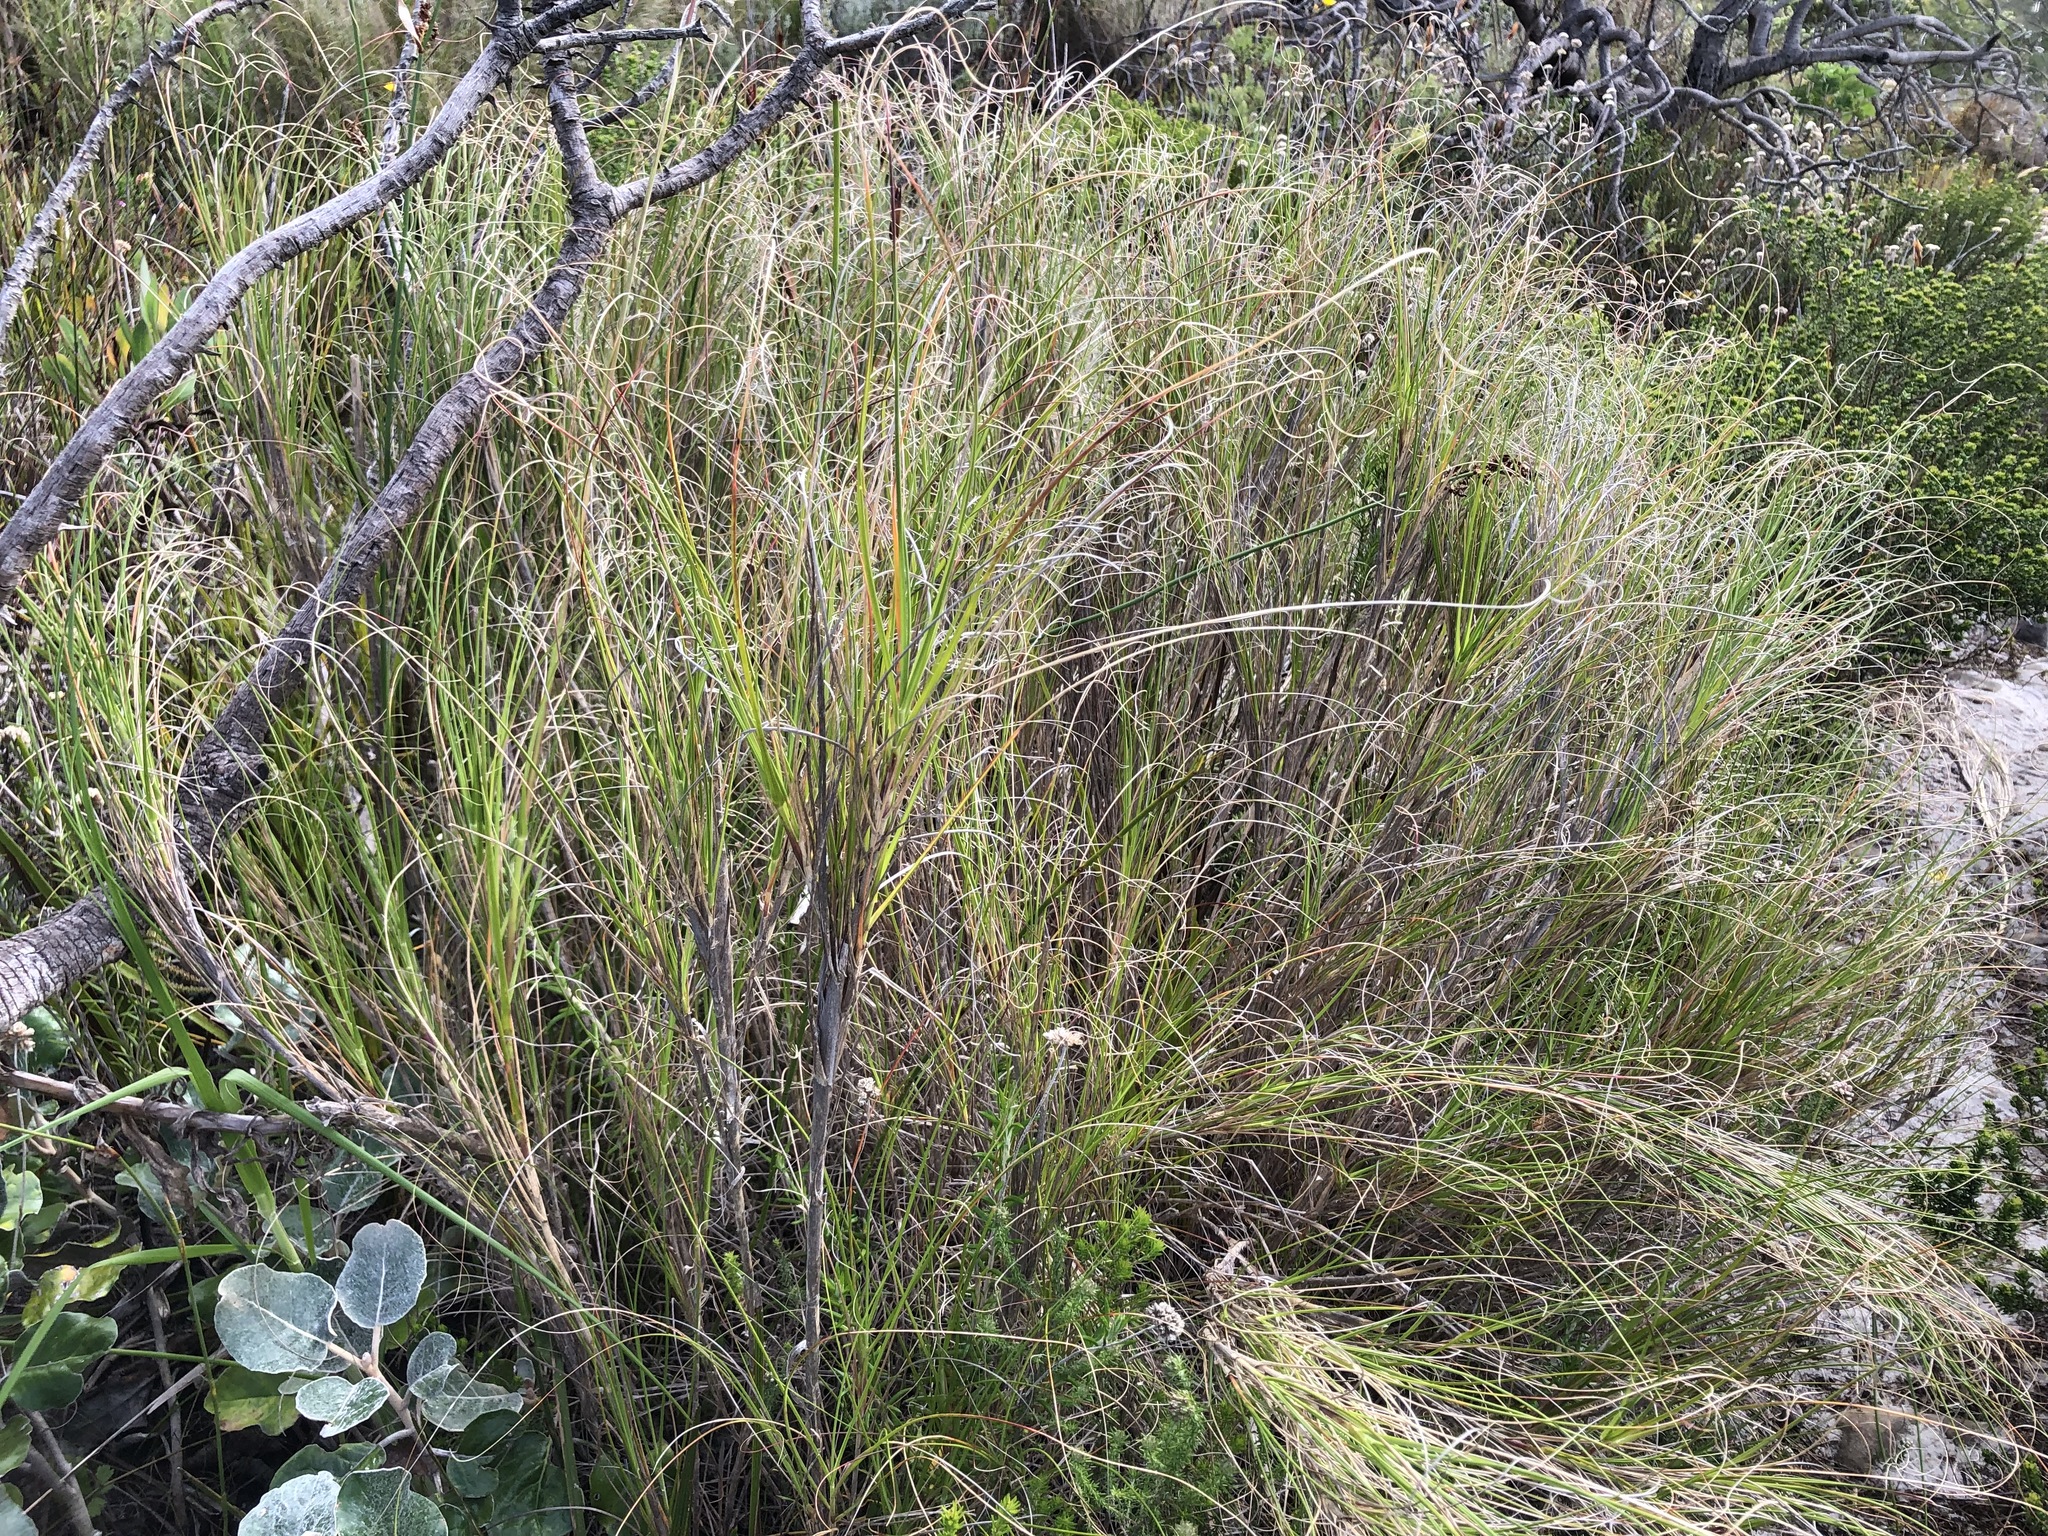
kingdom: Plantae
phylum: Tracheophyta
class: Liliopsida
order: Poales
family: Poaceae
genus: Pseudopentameris
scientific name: Pseudopentameris macrantha
